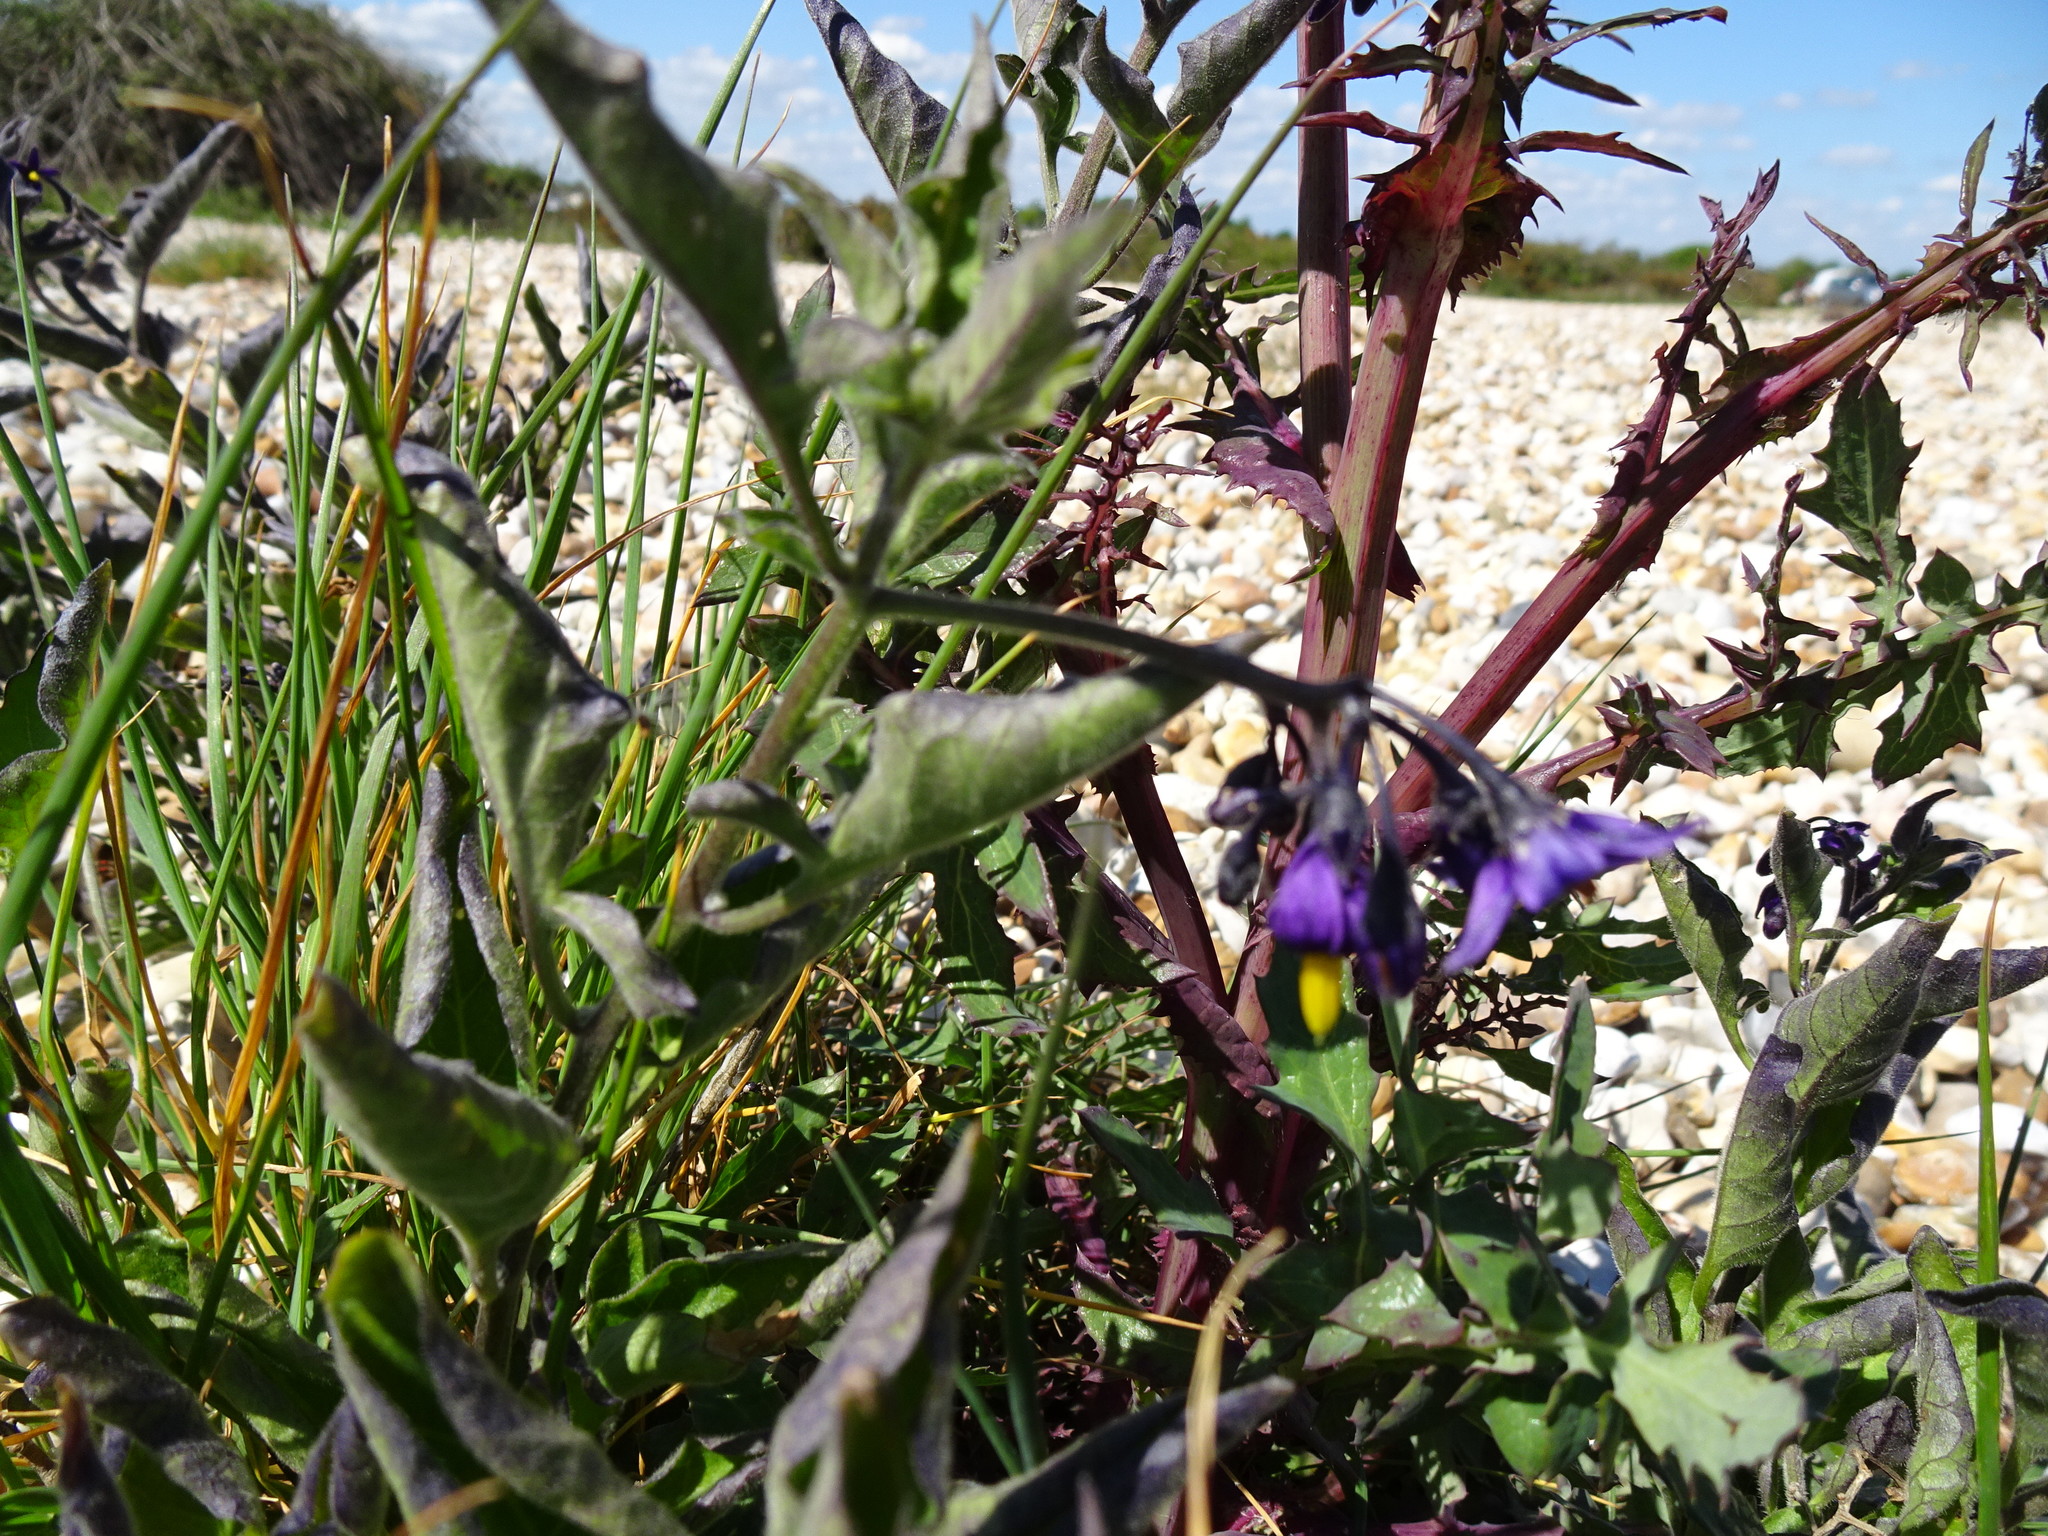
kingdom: Plantae
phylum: Tracheophyta
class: Magnoliopsida
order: Solanales
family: Solanaceae
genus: Solanum
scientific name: Solanum dulcamara
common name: Climbing nightshade
